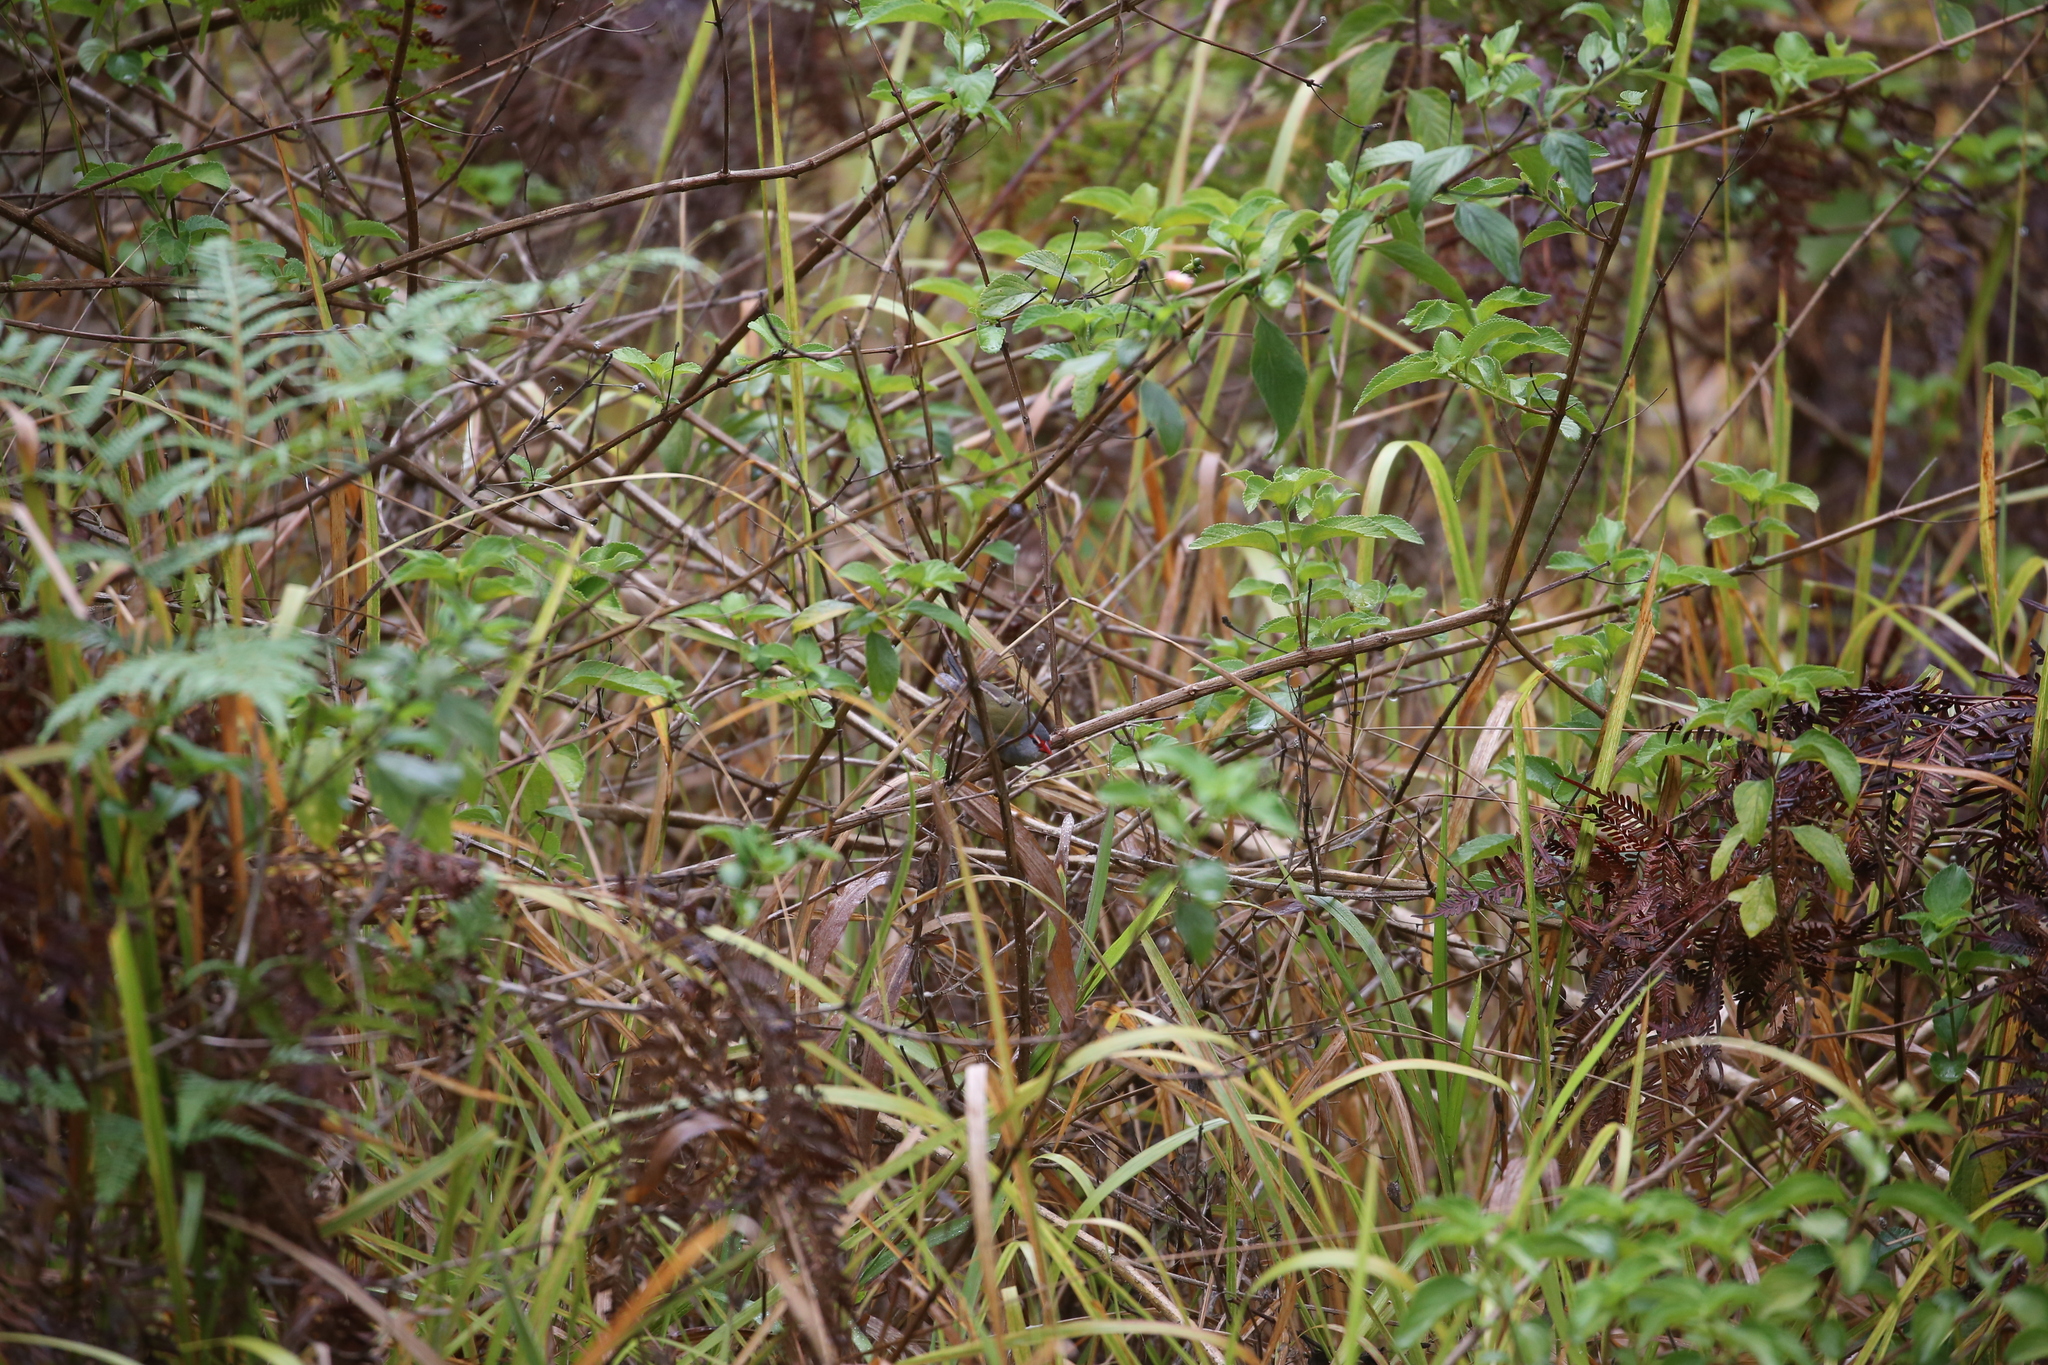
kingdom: Animalia
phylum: Chordata
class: Aves
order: Passeriformes
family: Estrildidae
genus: Neochmia
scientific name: Neochmia temporalis
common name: Red-browed finch
